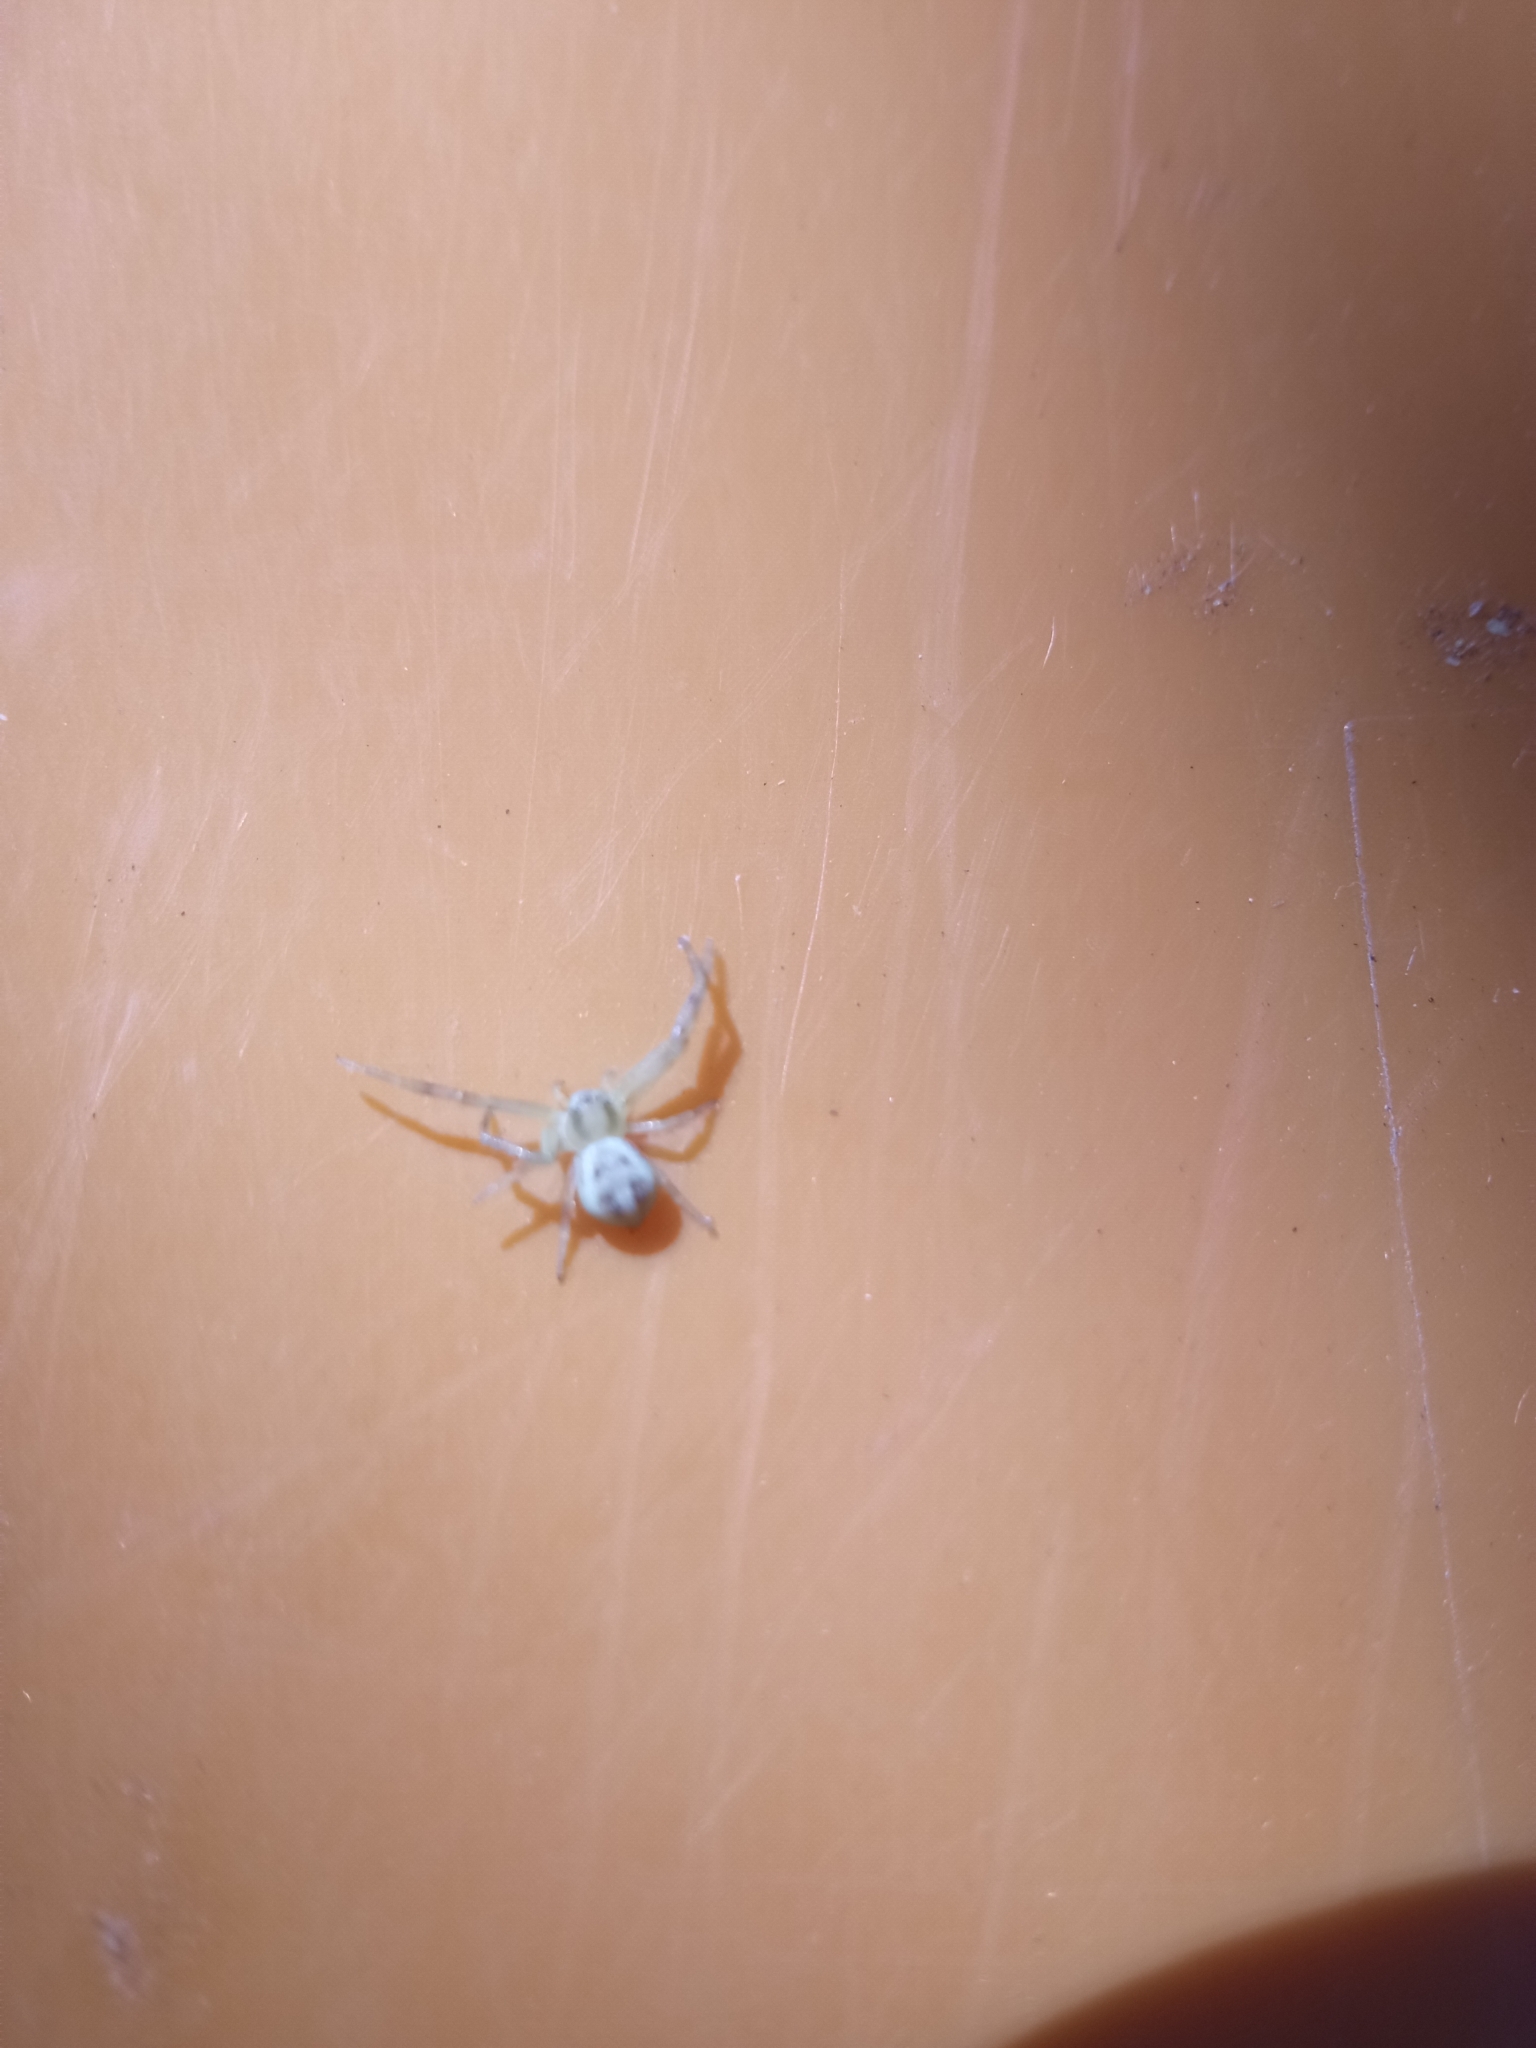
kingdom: Animalia
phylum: Arthropoda
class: Arachnida
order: Araneae
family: Thomisidae
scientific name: Thomisidae
